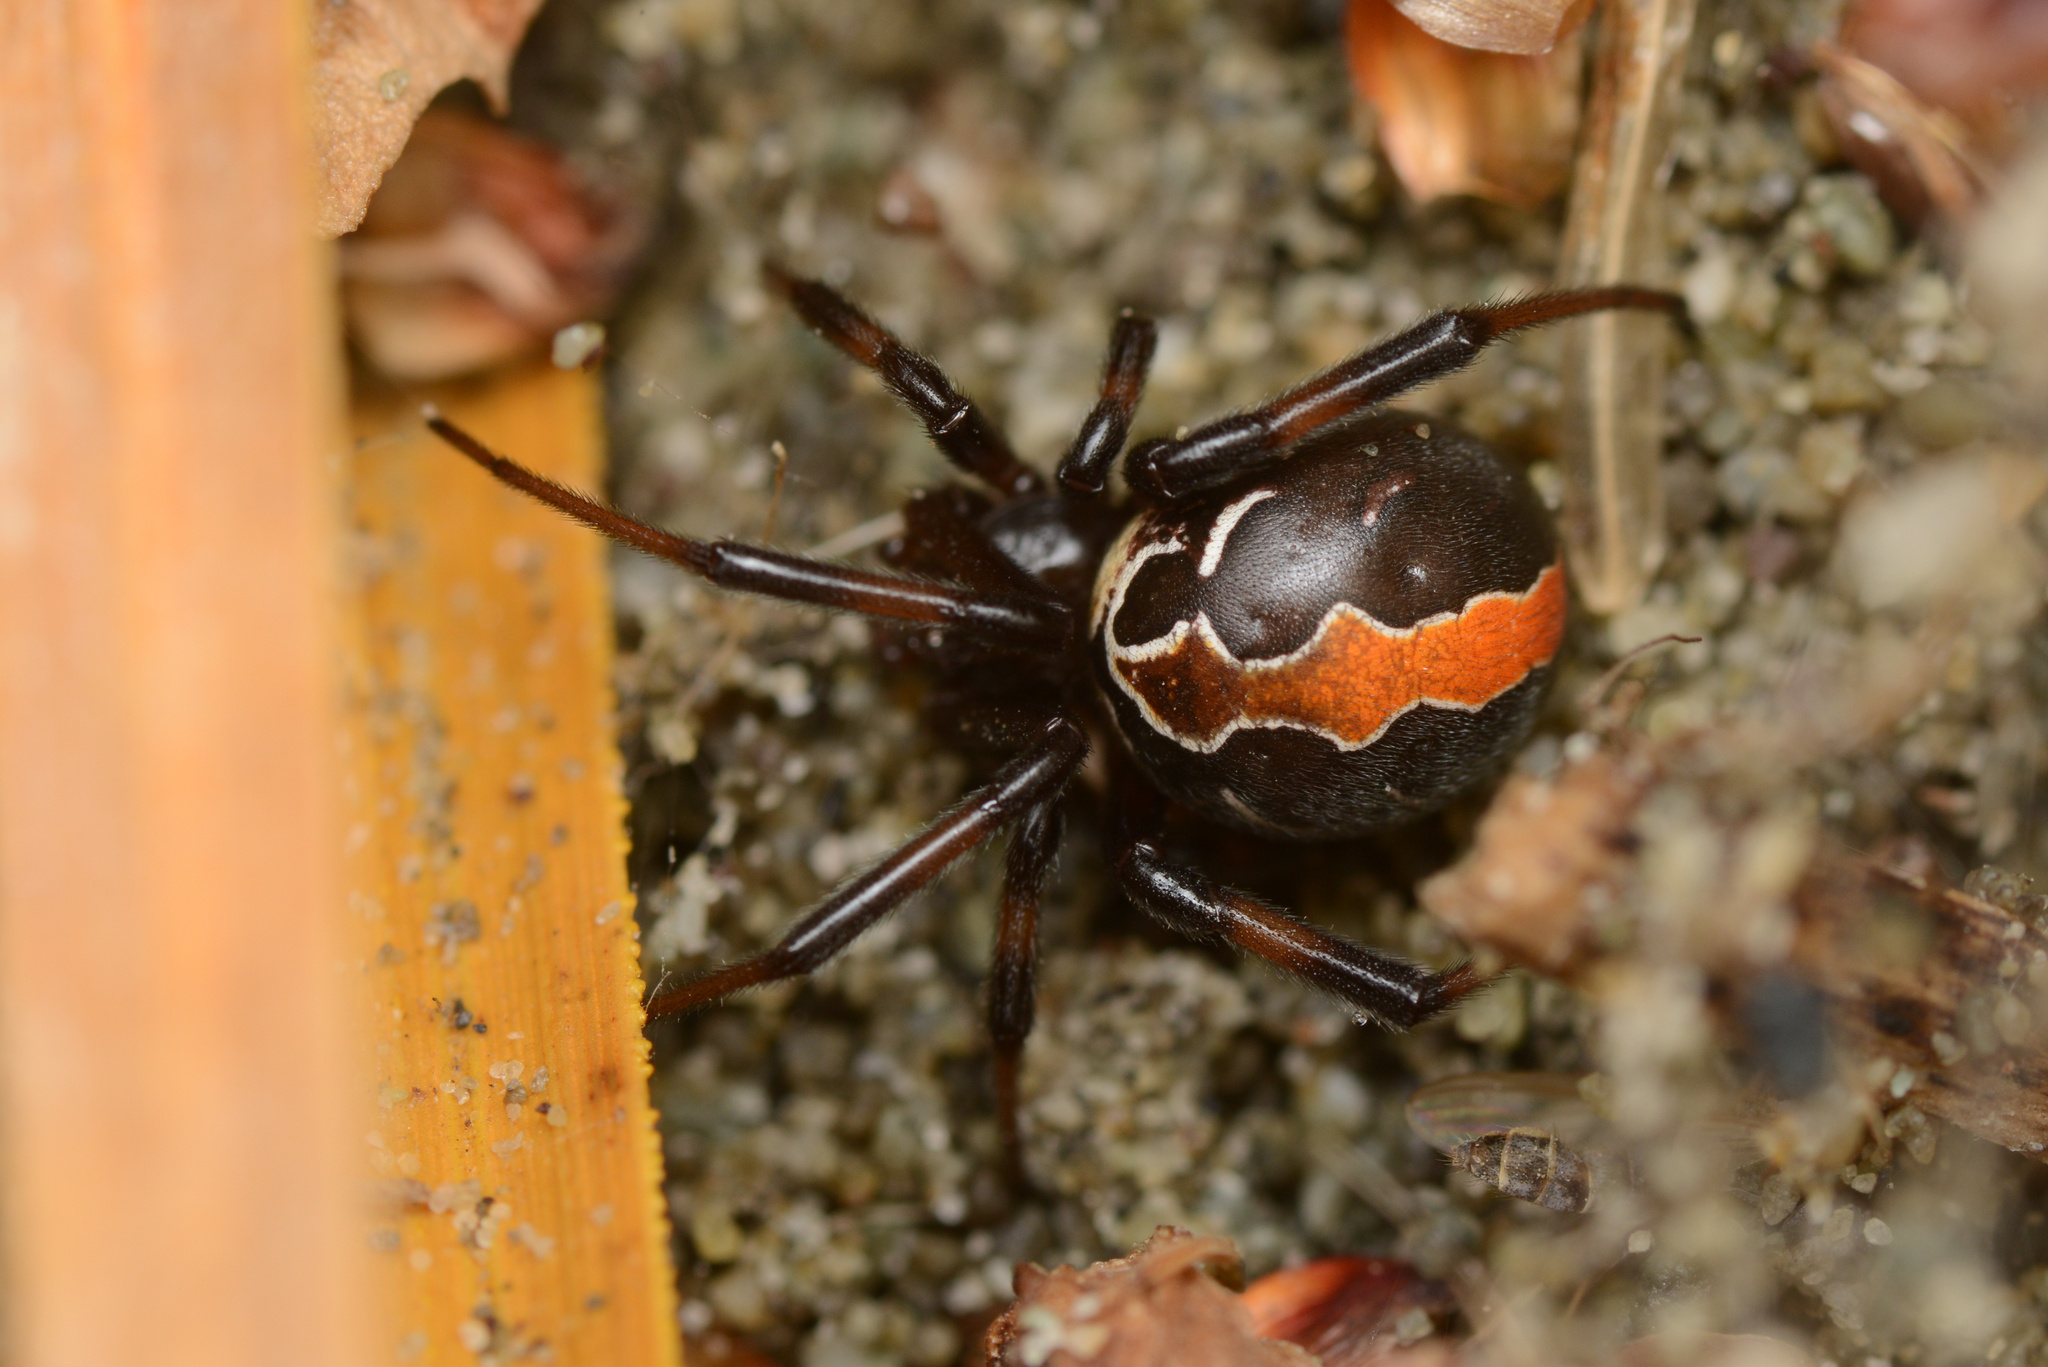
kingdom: Animalia
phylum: Arthropoda
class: Arachnida
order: Araneae
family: Theridiidae
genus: Latrodectus
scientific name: Latrodectus katipo
